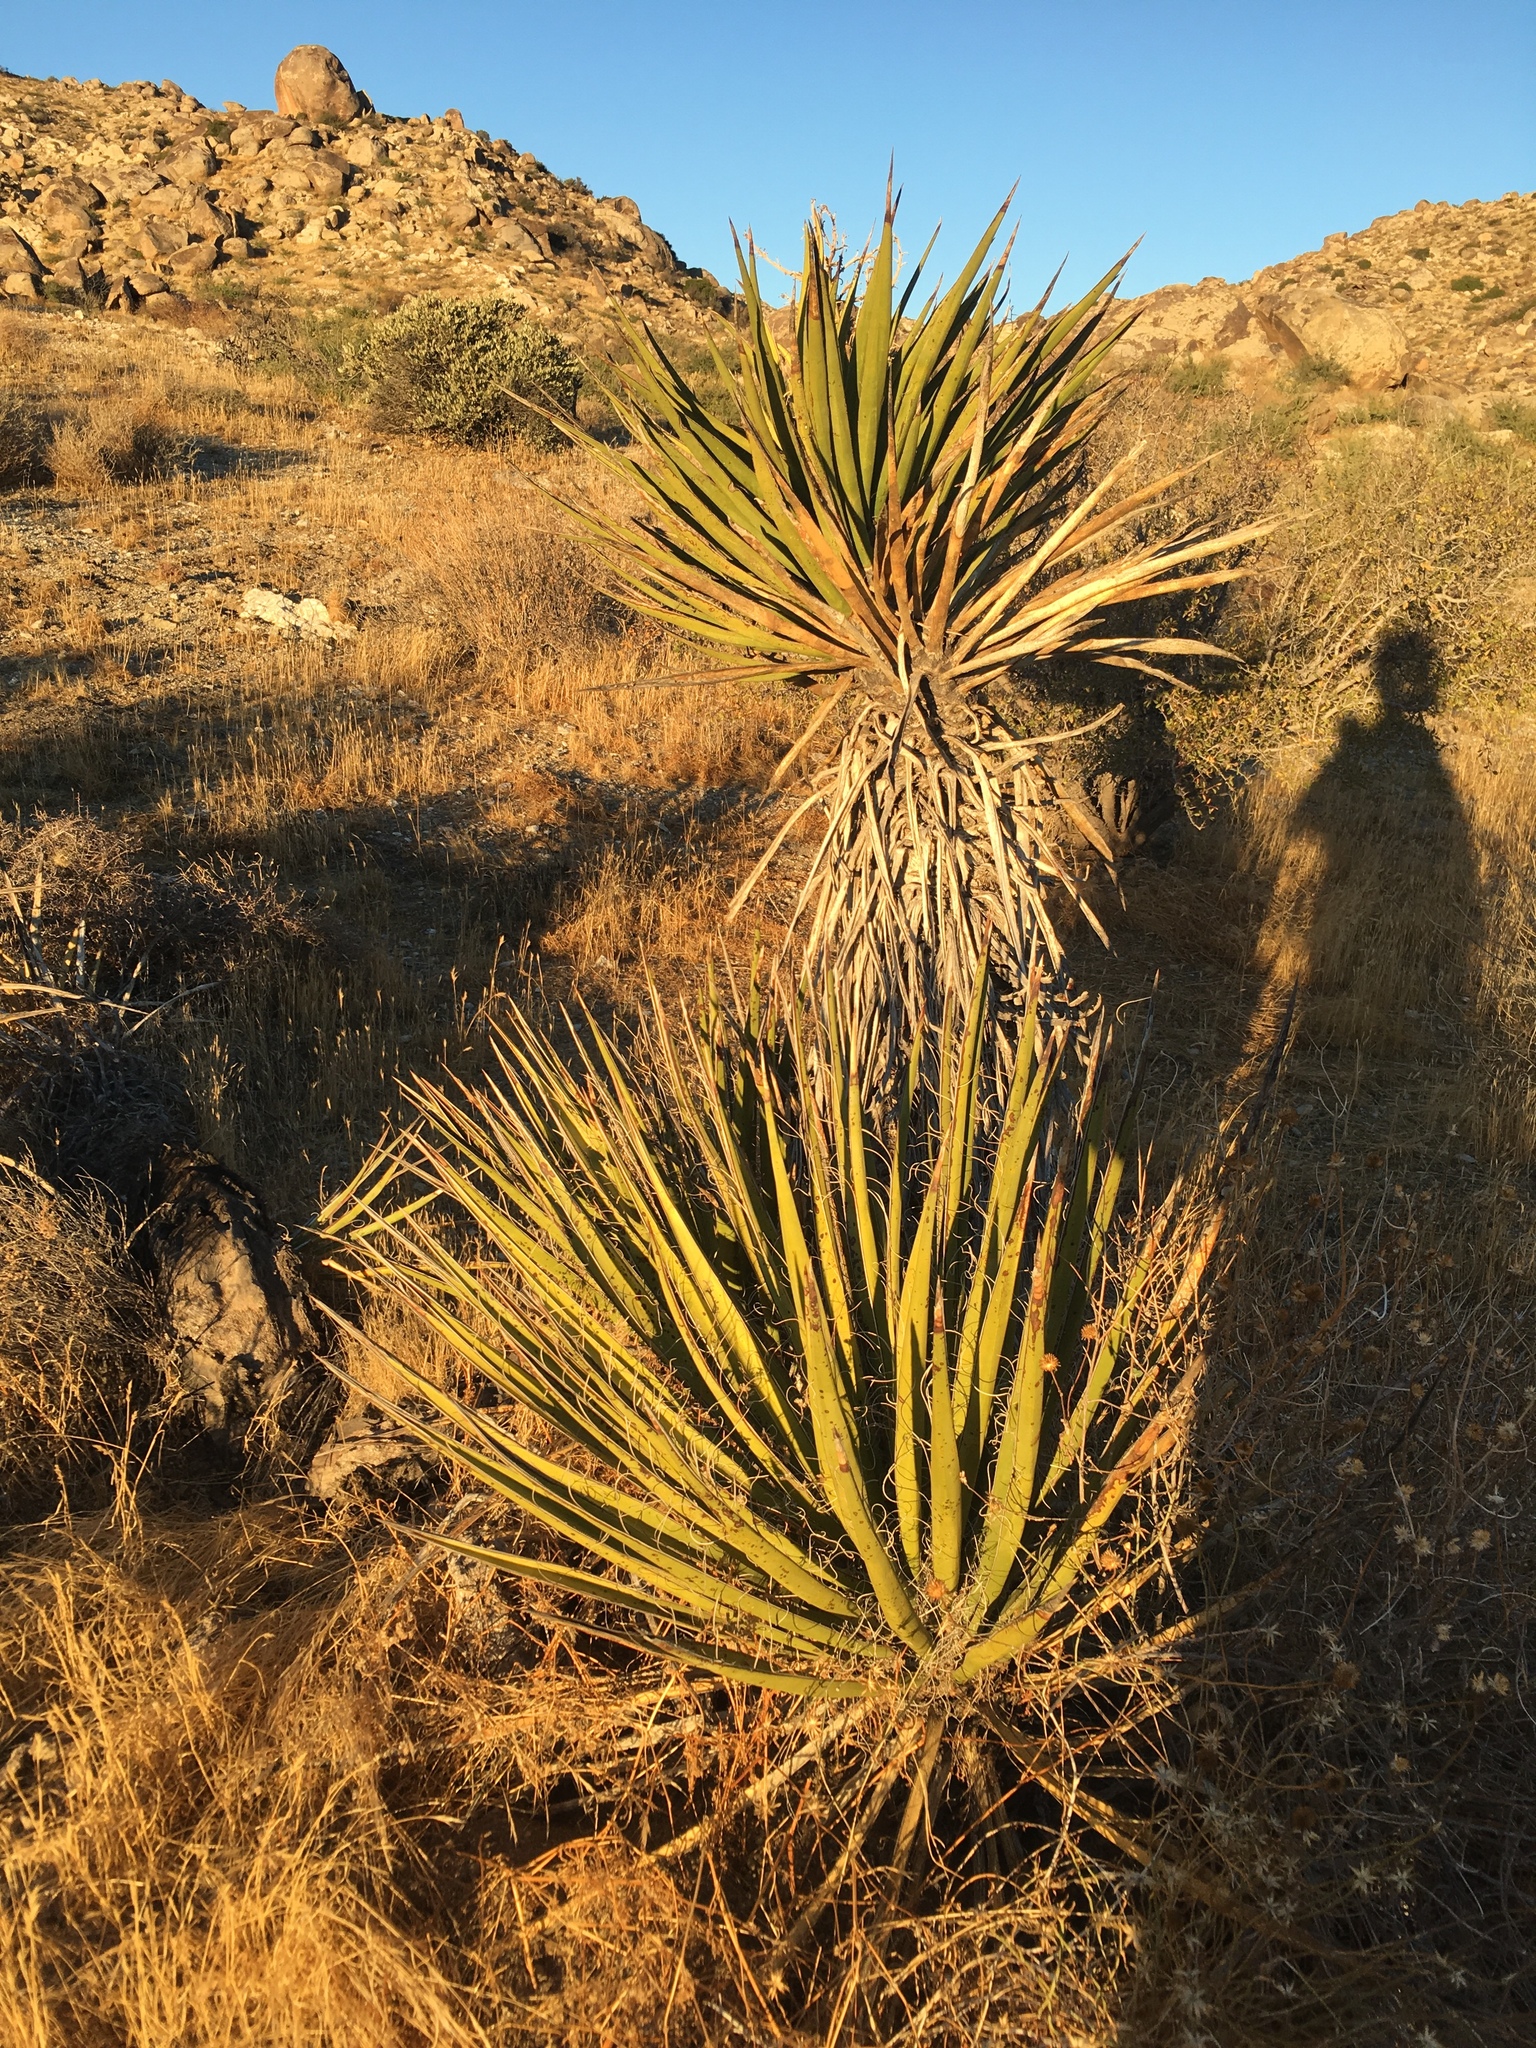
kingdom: Plantae
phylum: Tracheophyta
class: Liliopsida
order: Asparagales
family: Asparagaceae
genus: Yucca
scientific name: Yucca schidigera
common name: Mojave yucca
